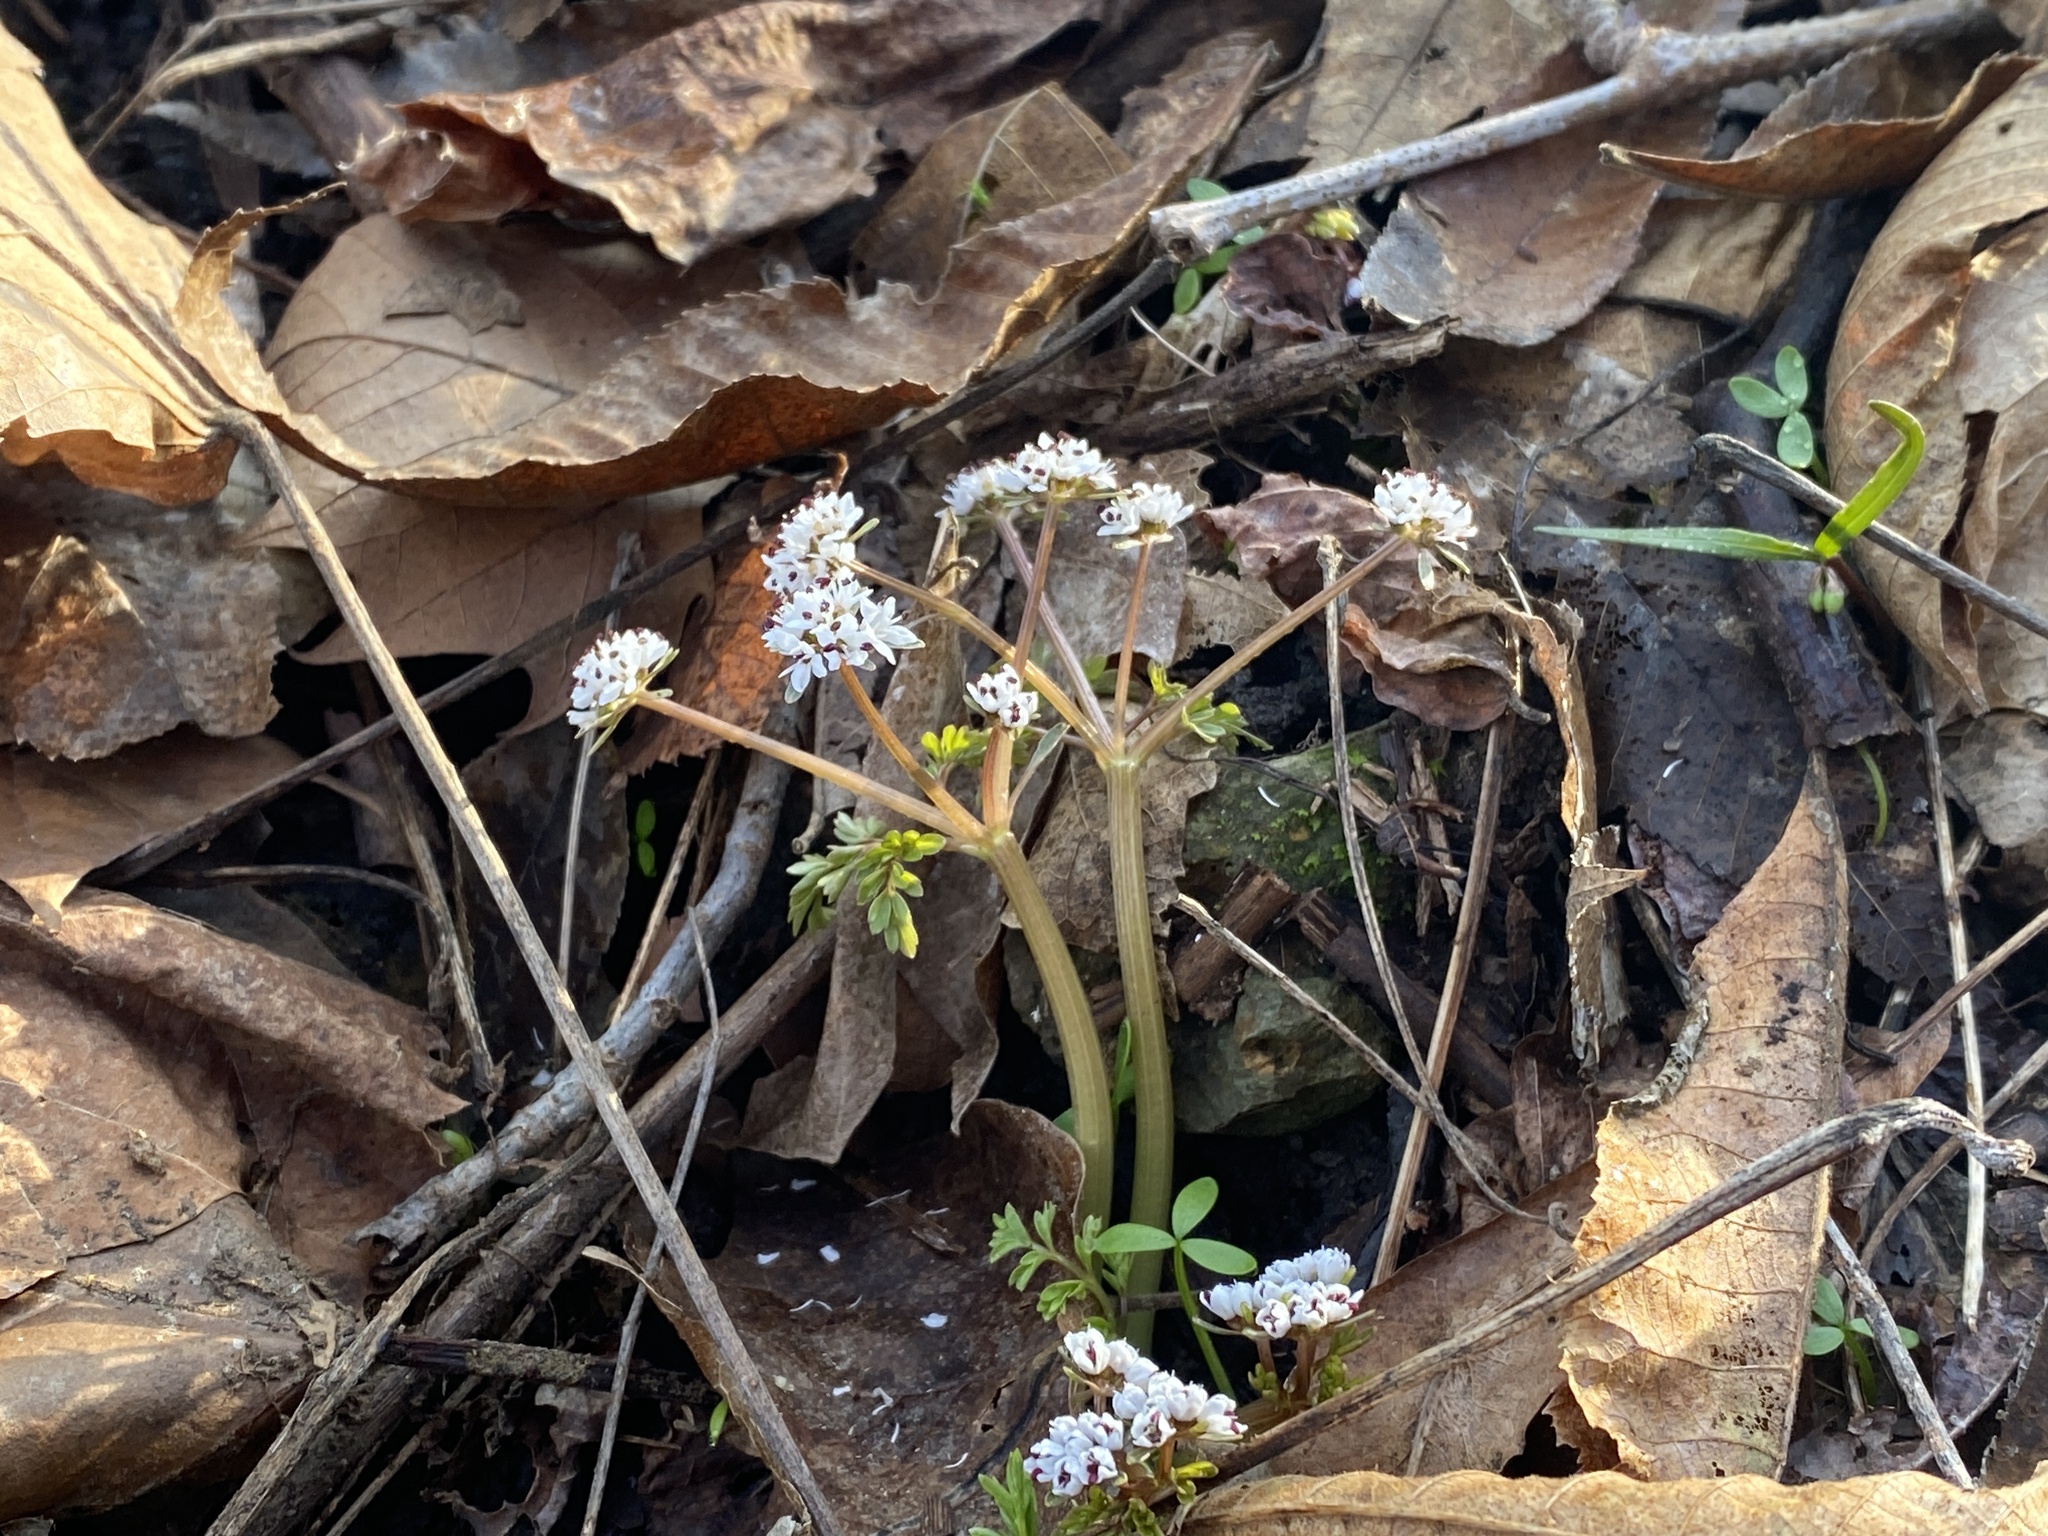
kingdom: Plantae
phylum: Tracheophyta
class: Magnoliopsida
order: Apiales
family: Apiaceae
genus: Erigenia
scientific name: Erigenia bulbosa
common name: Pepper-and-salt
